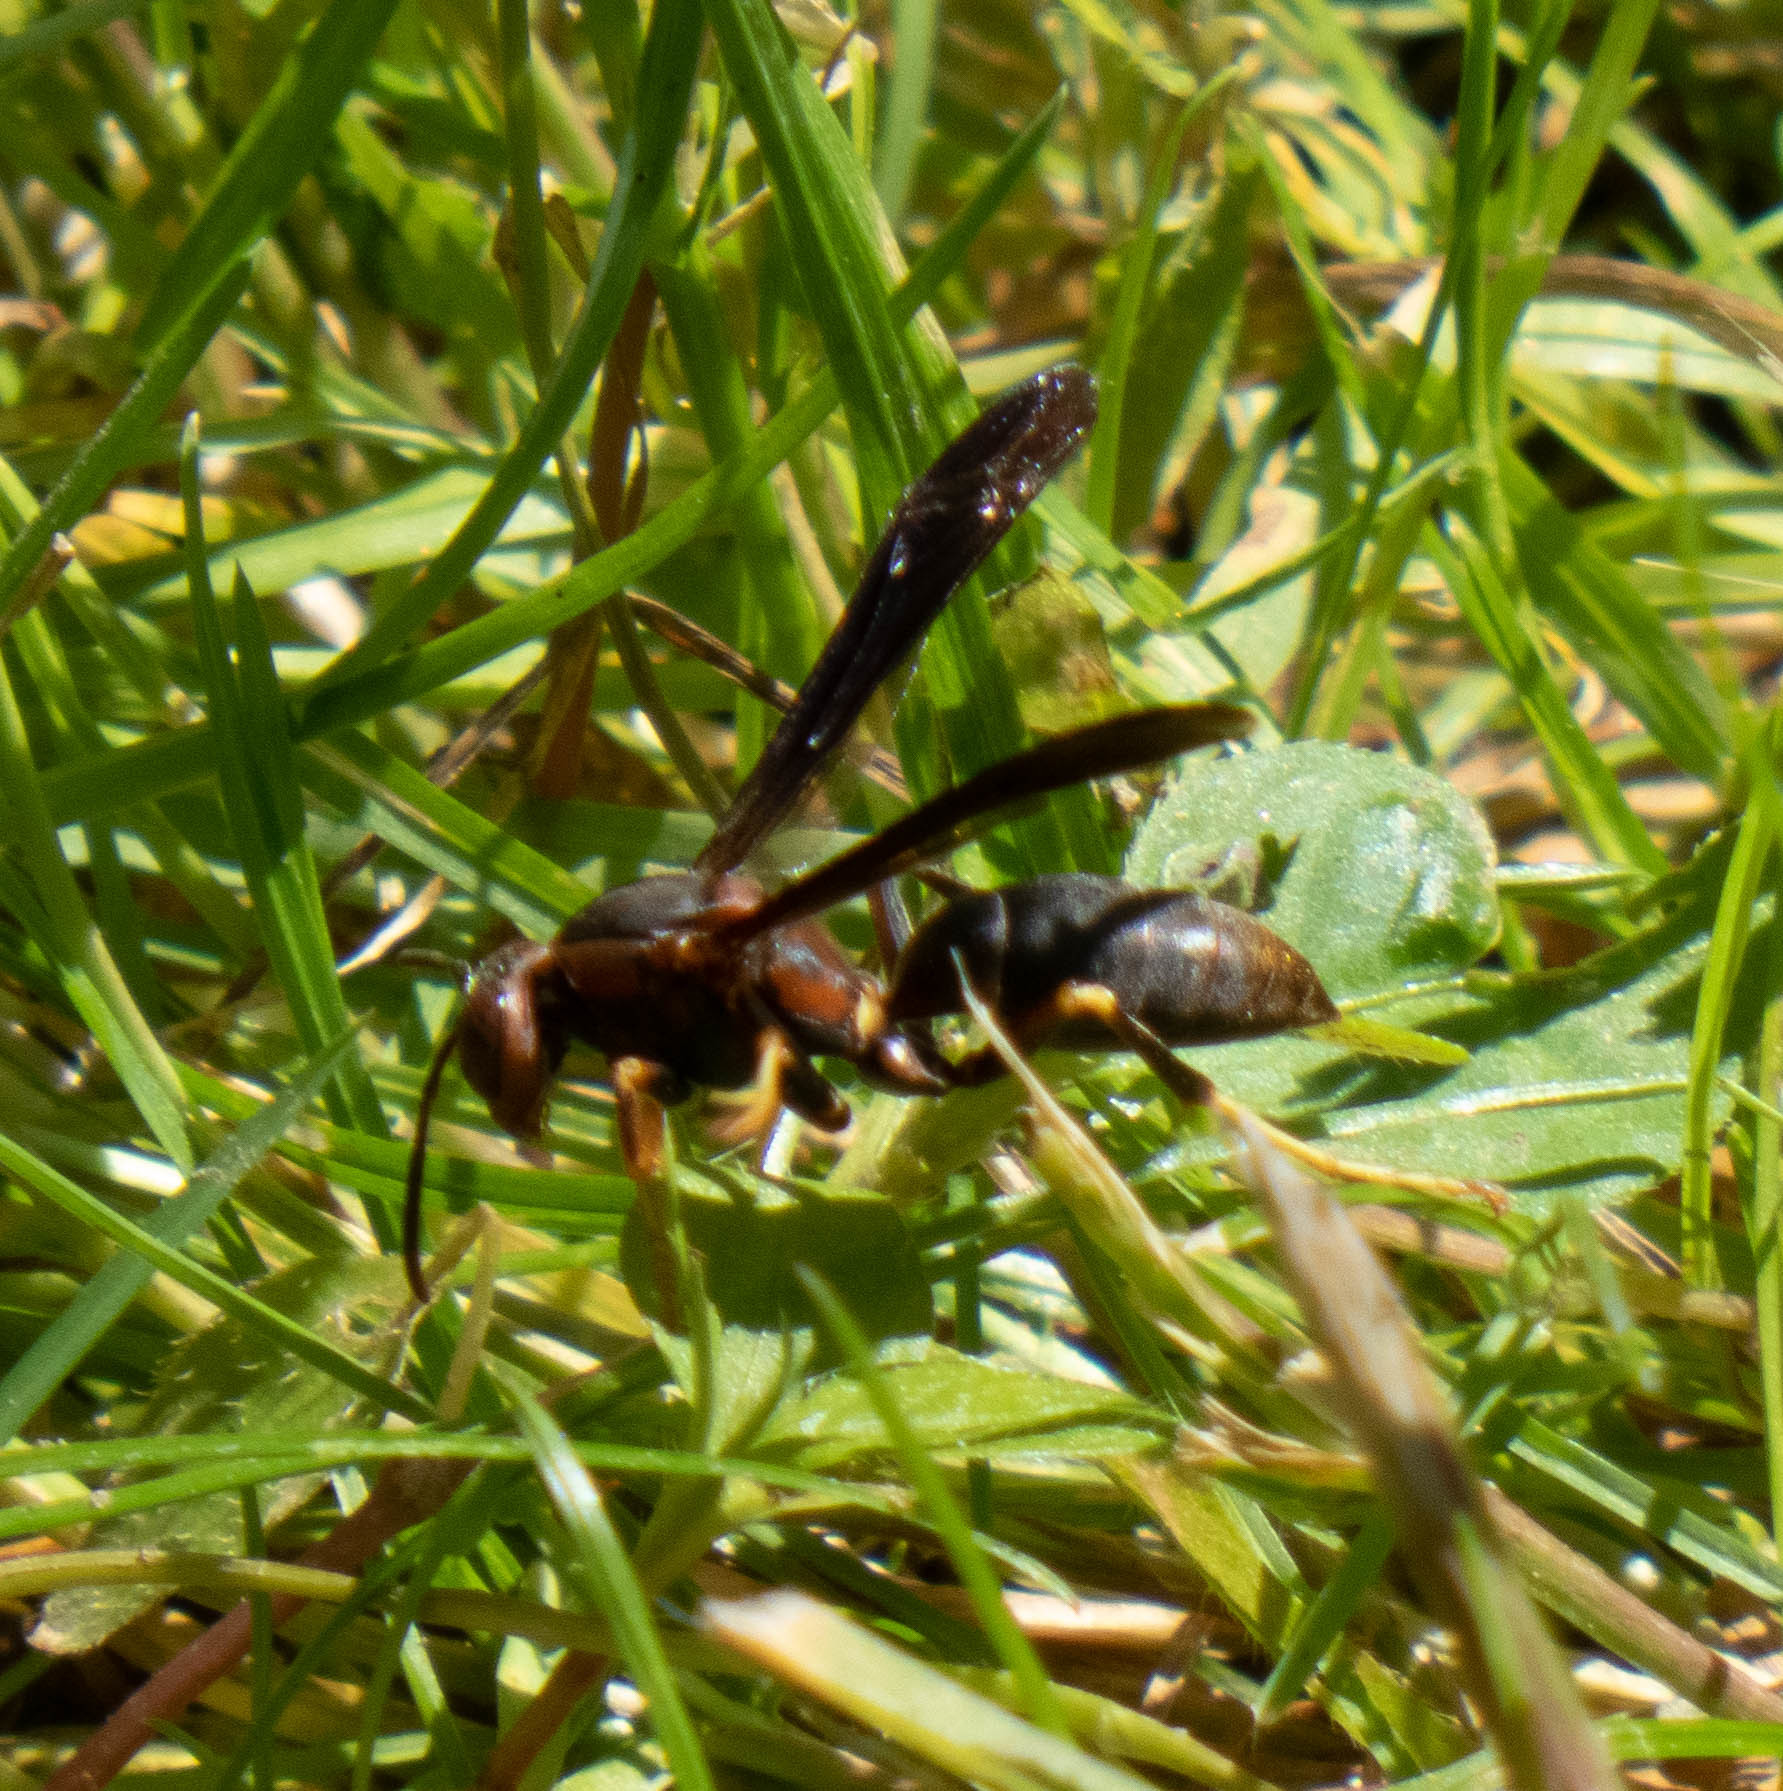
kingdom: Animalia
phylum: Arthropoda
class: Insecta
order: Hymenoptera
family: Eumenidae
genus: Polistes
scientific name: Polistes fuscatus
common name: Dark paper wasp
